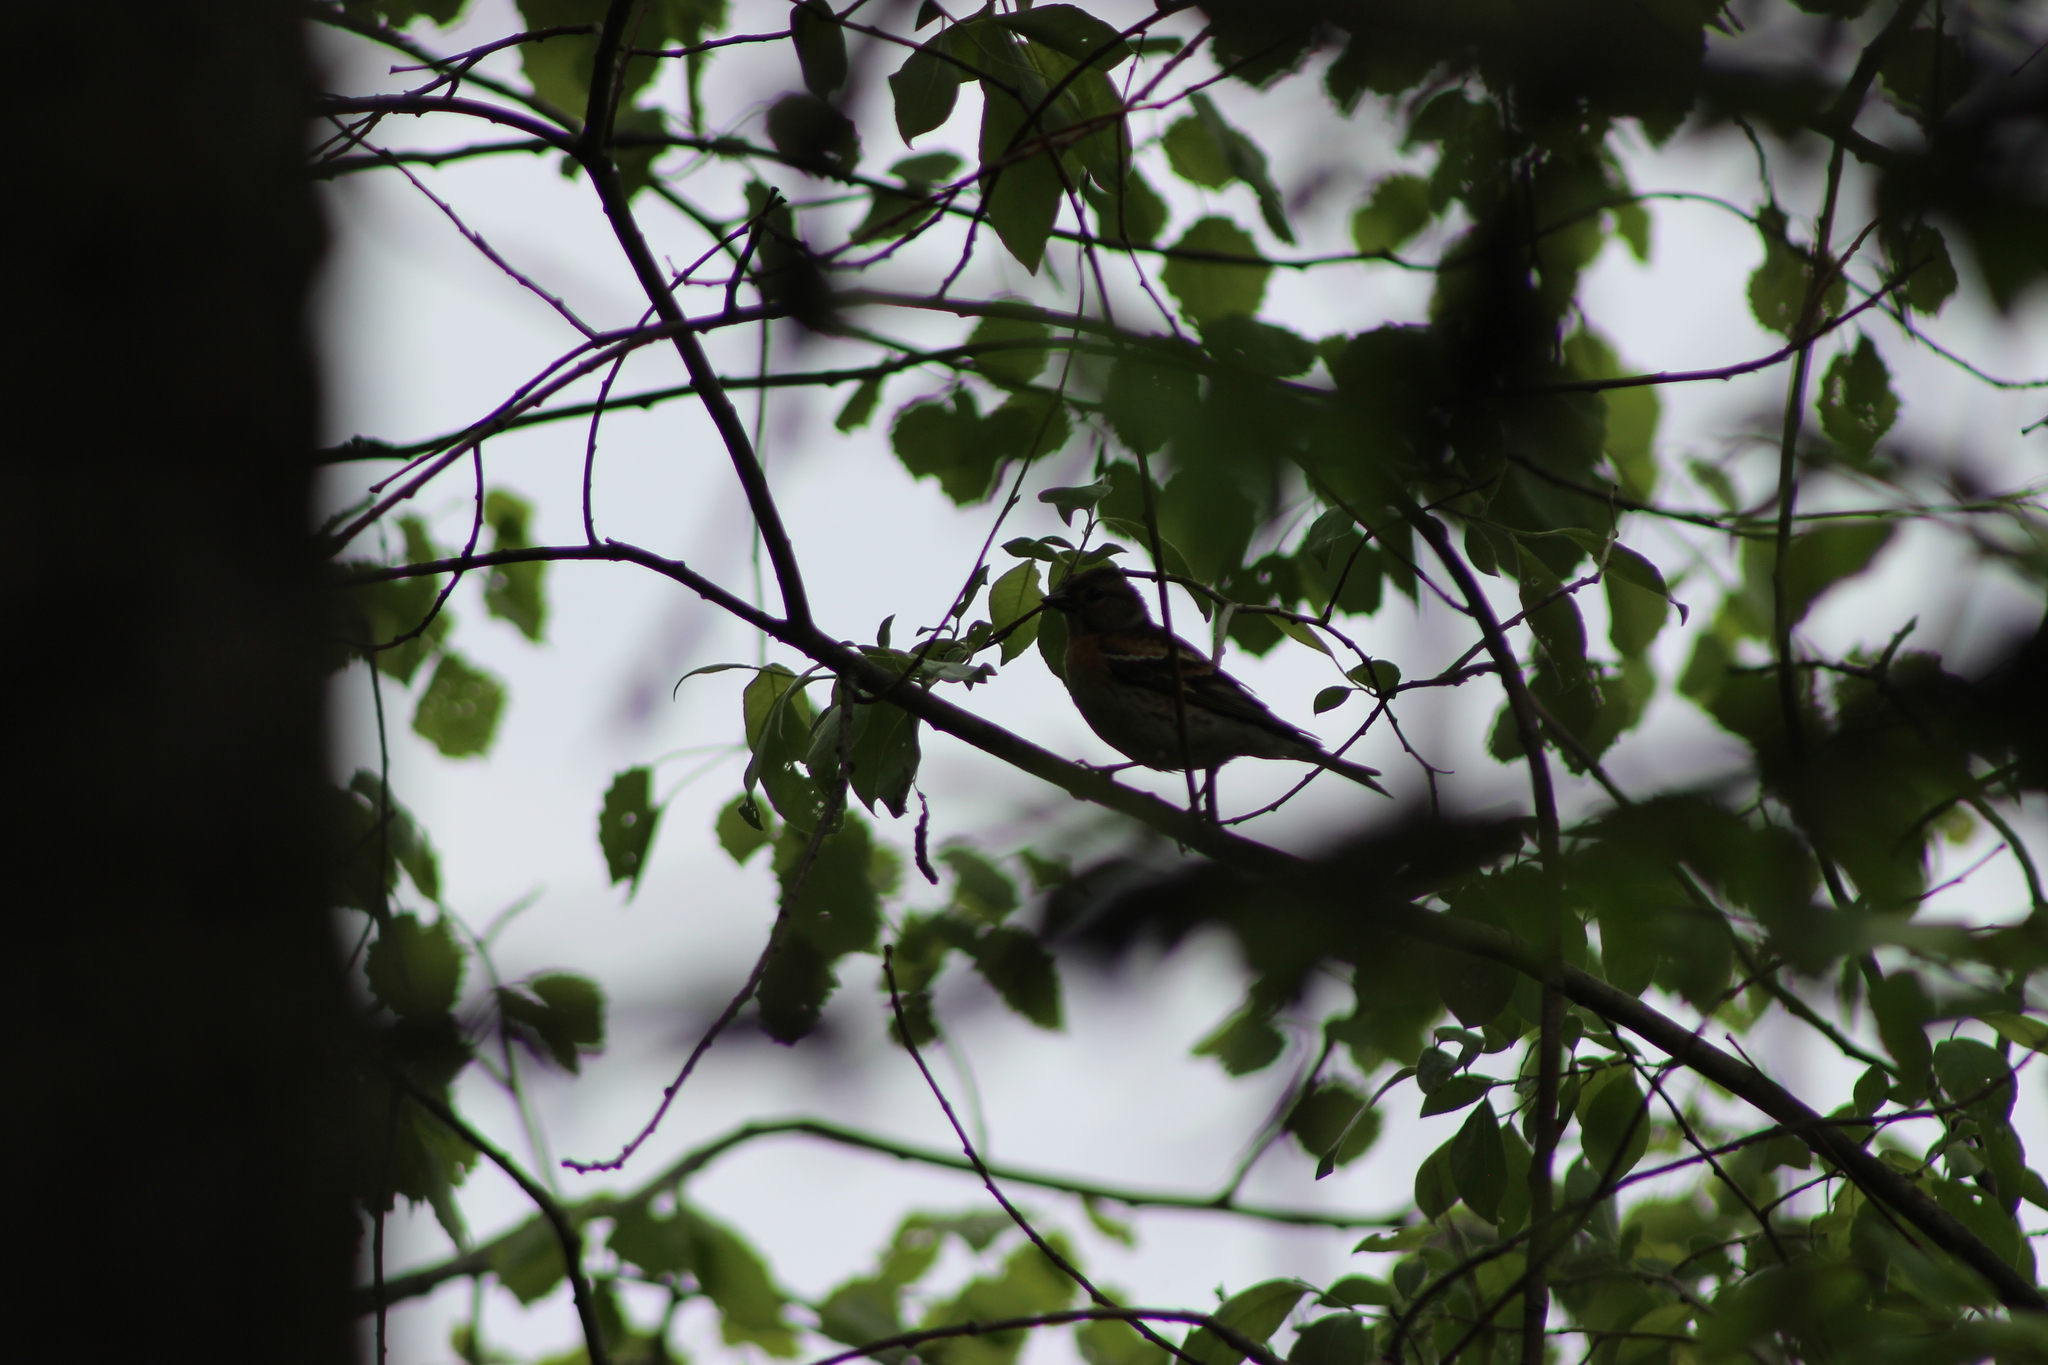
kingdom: Animalia
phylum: Chordata
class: Aves
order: Passeriformes
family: Fringillidae
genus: Fringilla
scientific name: Fringilla montifringilla
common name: Brambling
